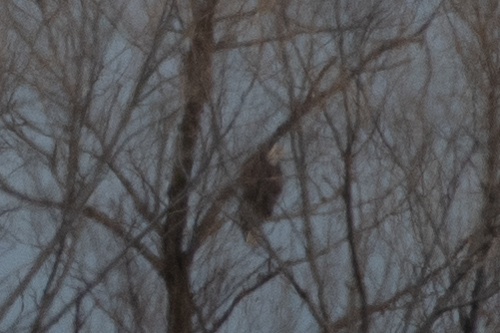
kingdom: Animalia
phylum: Chordata
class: Aves
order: Accipitriformes
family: Accipitridae
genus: Haliaeetus
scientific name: Haliaeetus leucocephalus
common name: Bald eagle
